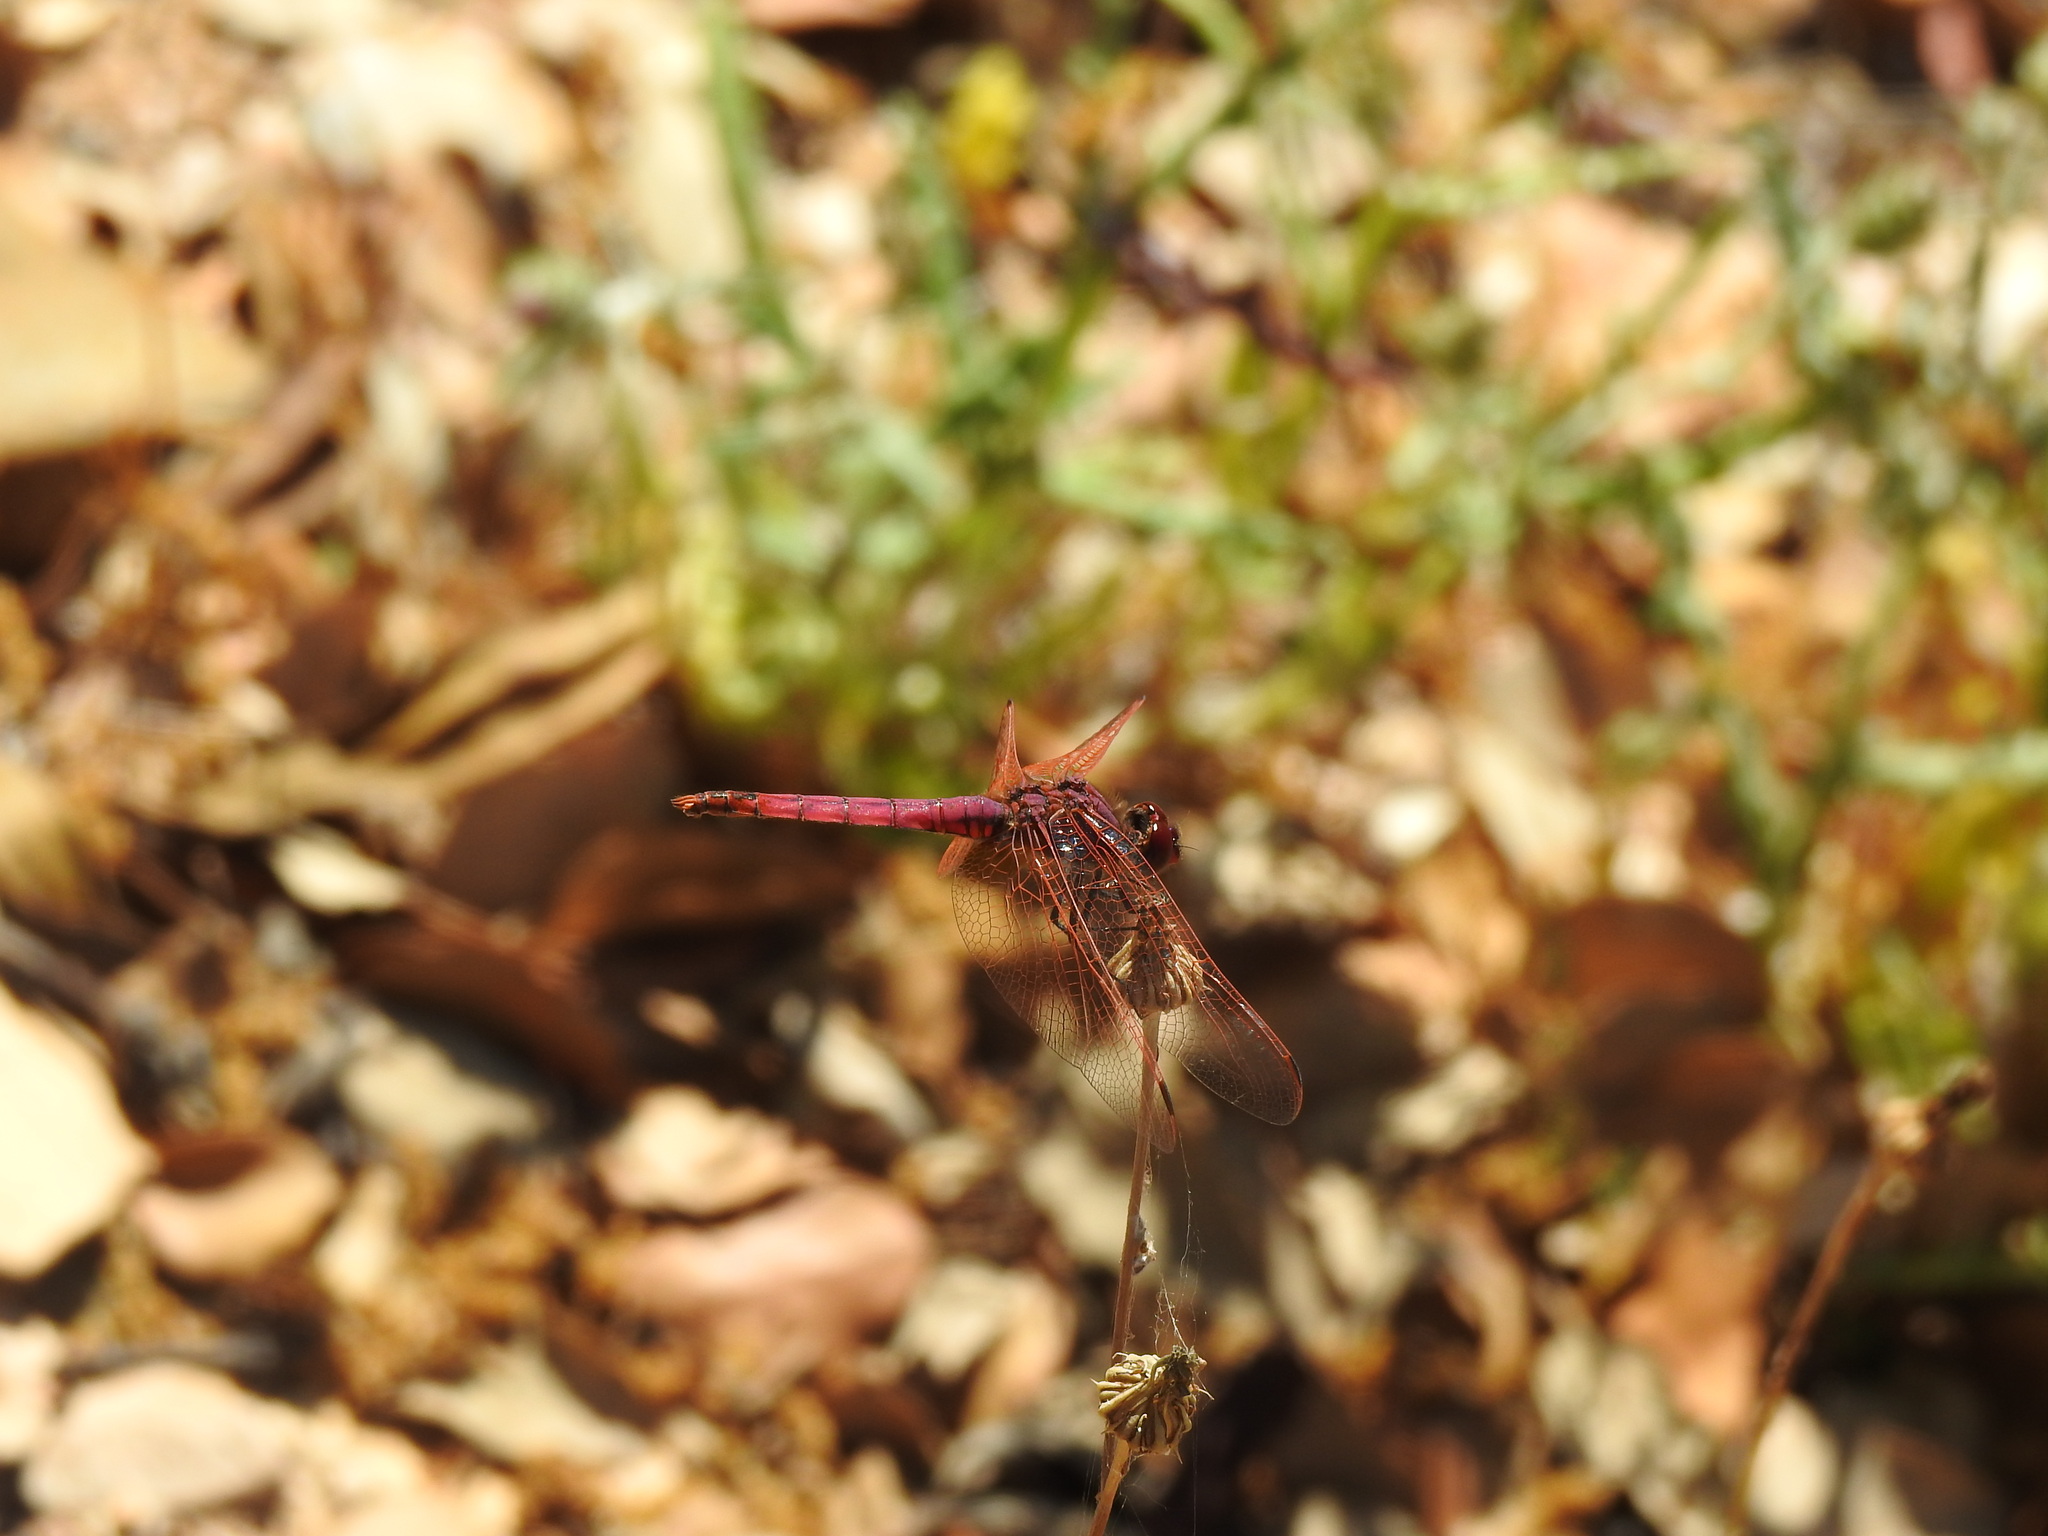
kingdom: Animalia
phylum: Arthropoda
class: Insecta
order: Odonata
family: Libellulidae
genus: Trithemis
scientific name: Trithemis annulata
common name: Violet dropwing
